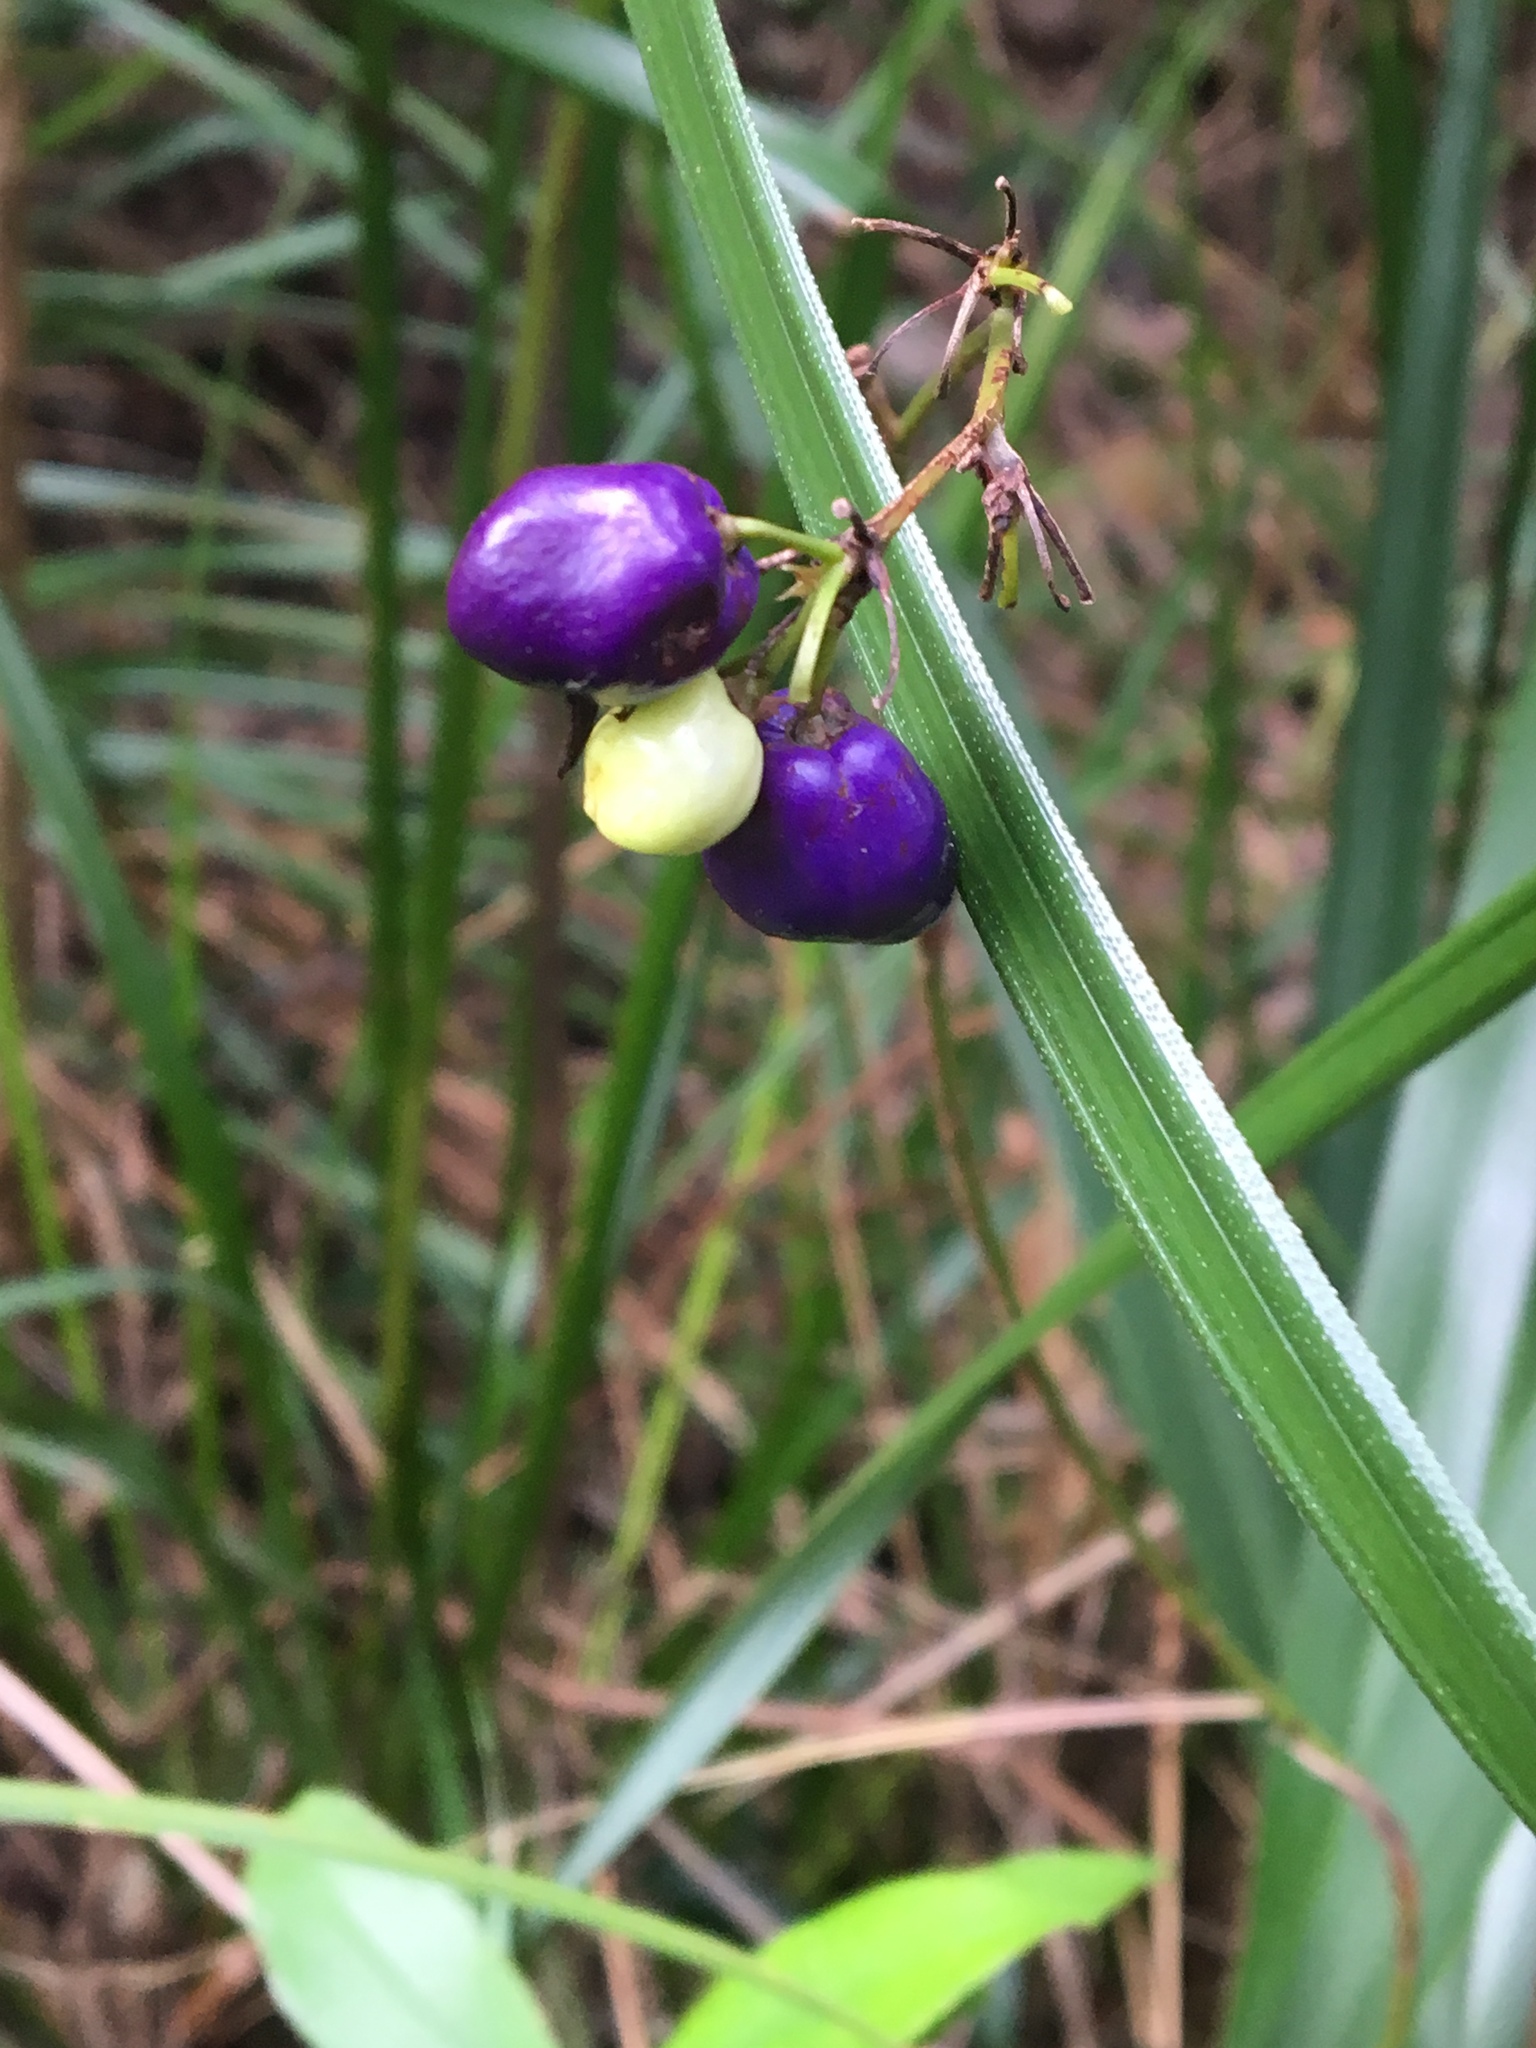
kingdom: Plantae
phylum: Tracheophyta
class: Liliopsida
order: Asparagales
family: Asphodelaceae
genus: Dianella
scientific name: Dianella ensifolia
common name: New zealand lilyplant
